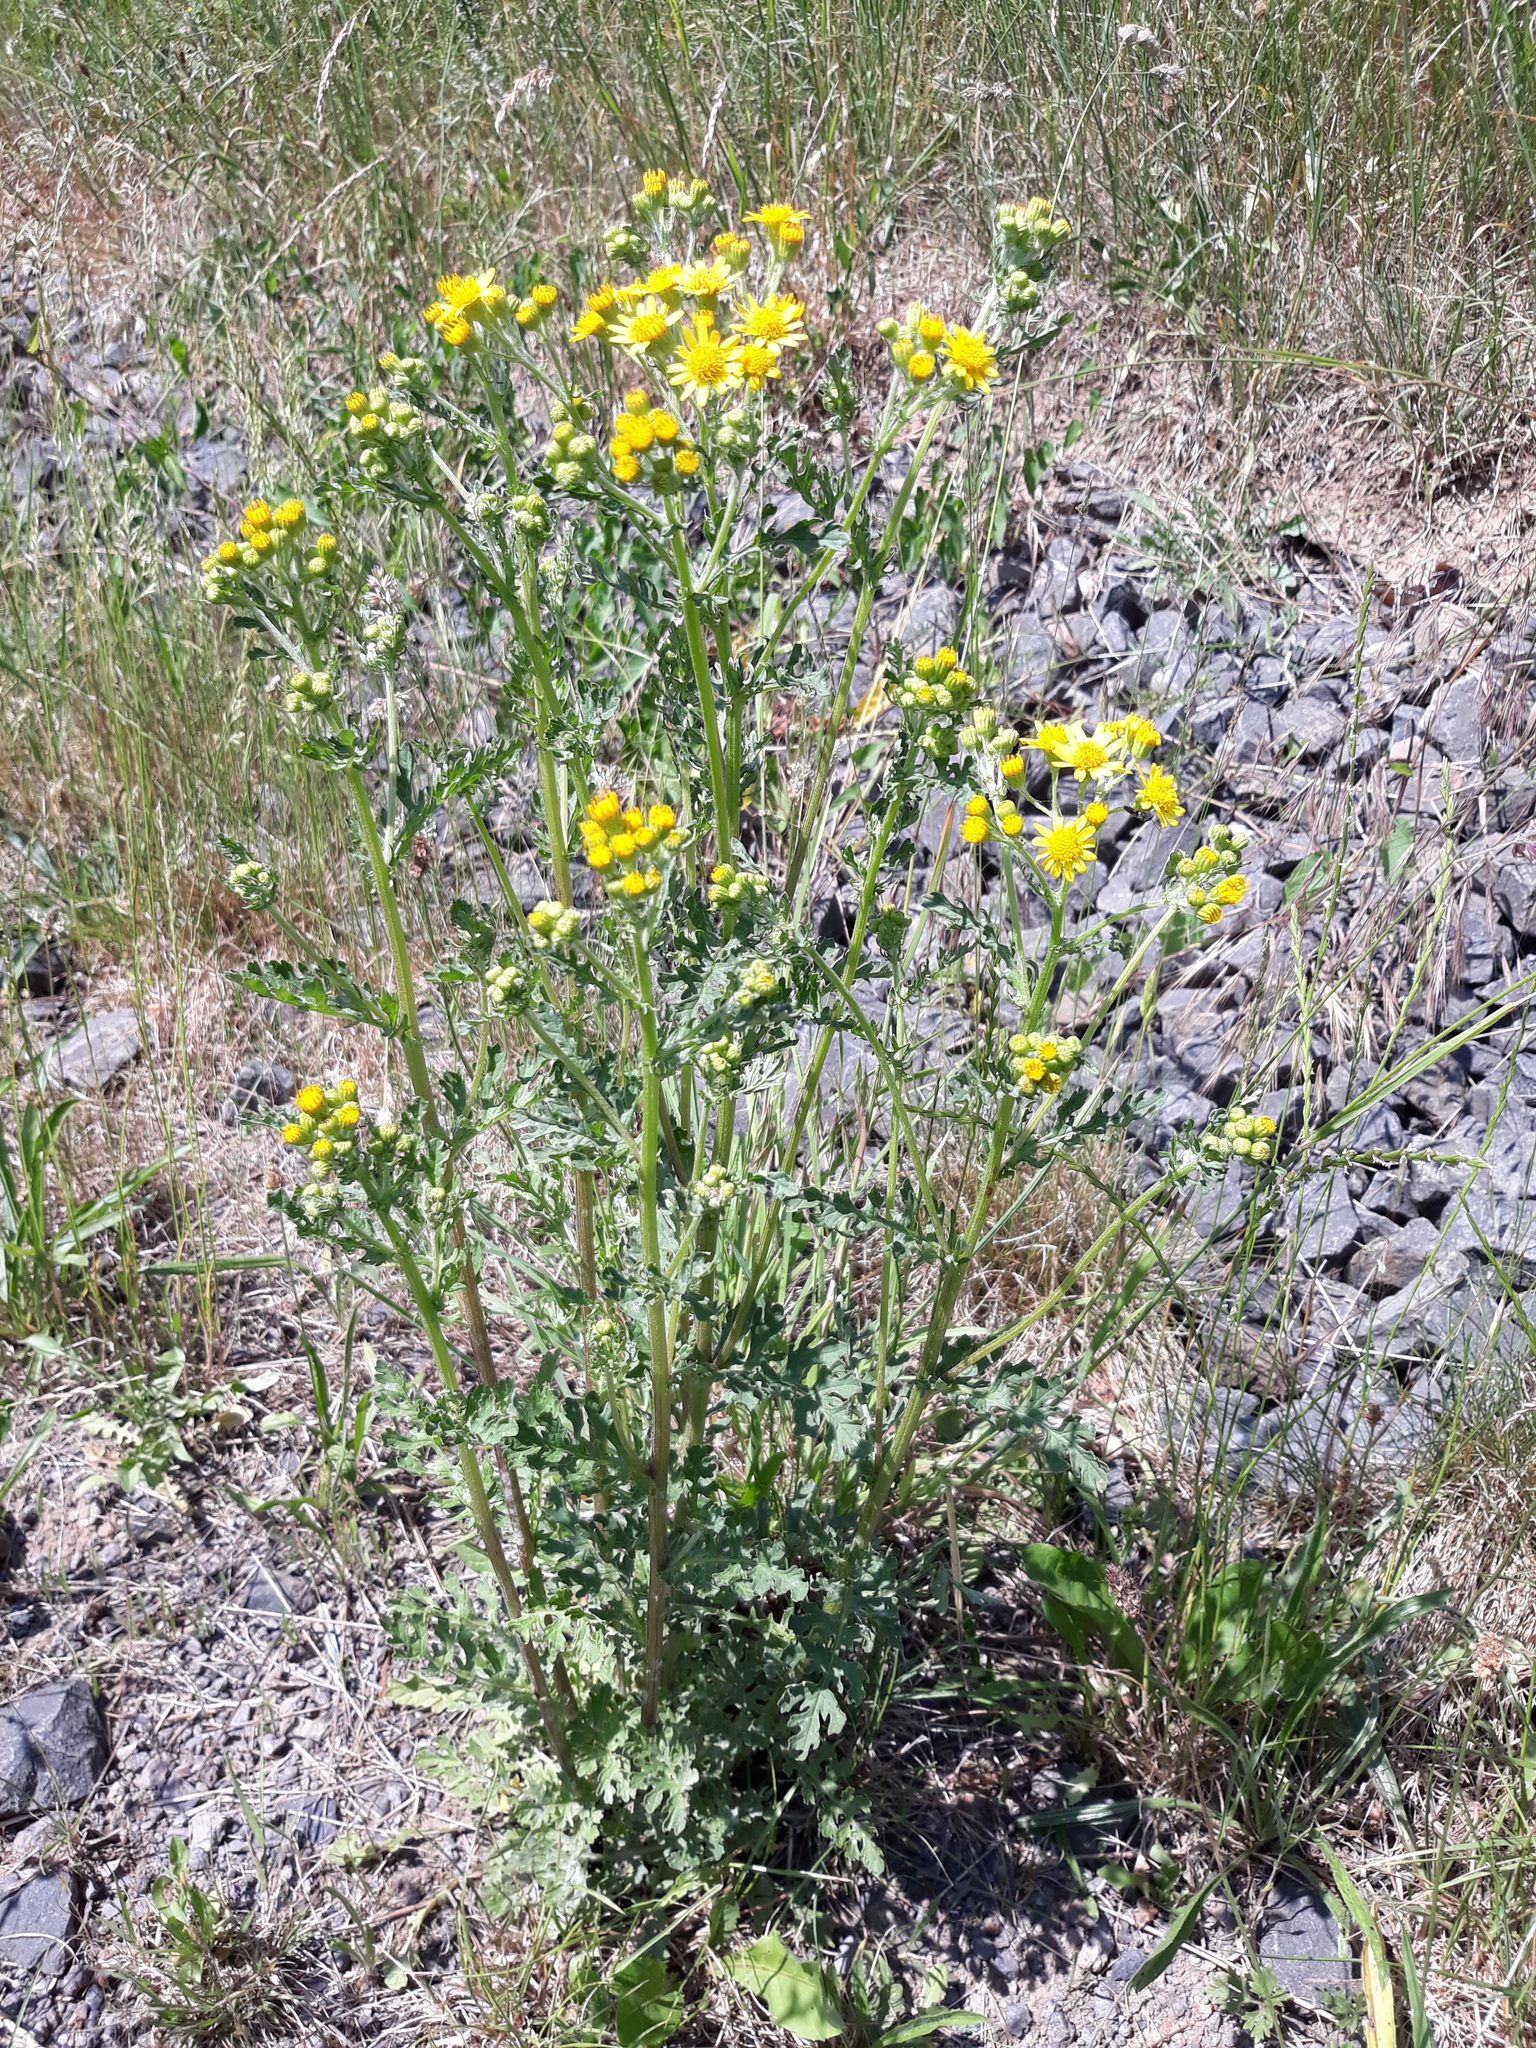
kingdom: Plantae
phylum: Tracheophyta
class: Magnoliopsida
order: Asterales
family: Asteraceae
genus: Jacobaea
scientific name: Jacobaea vulgaris
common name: Stinking willie
